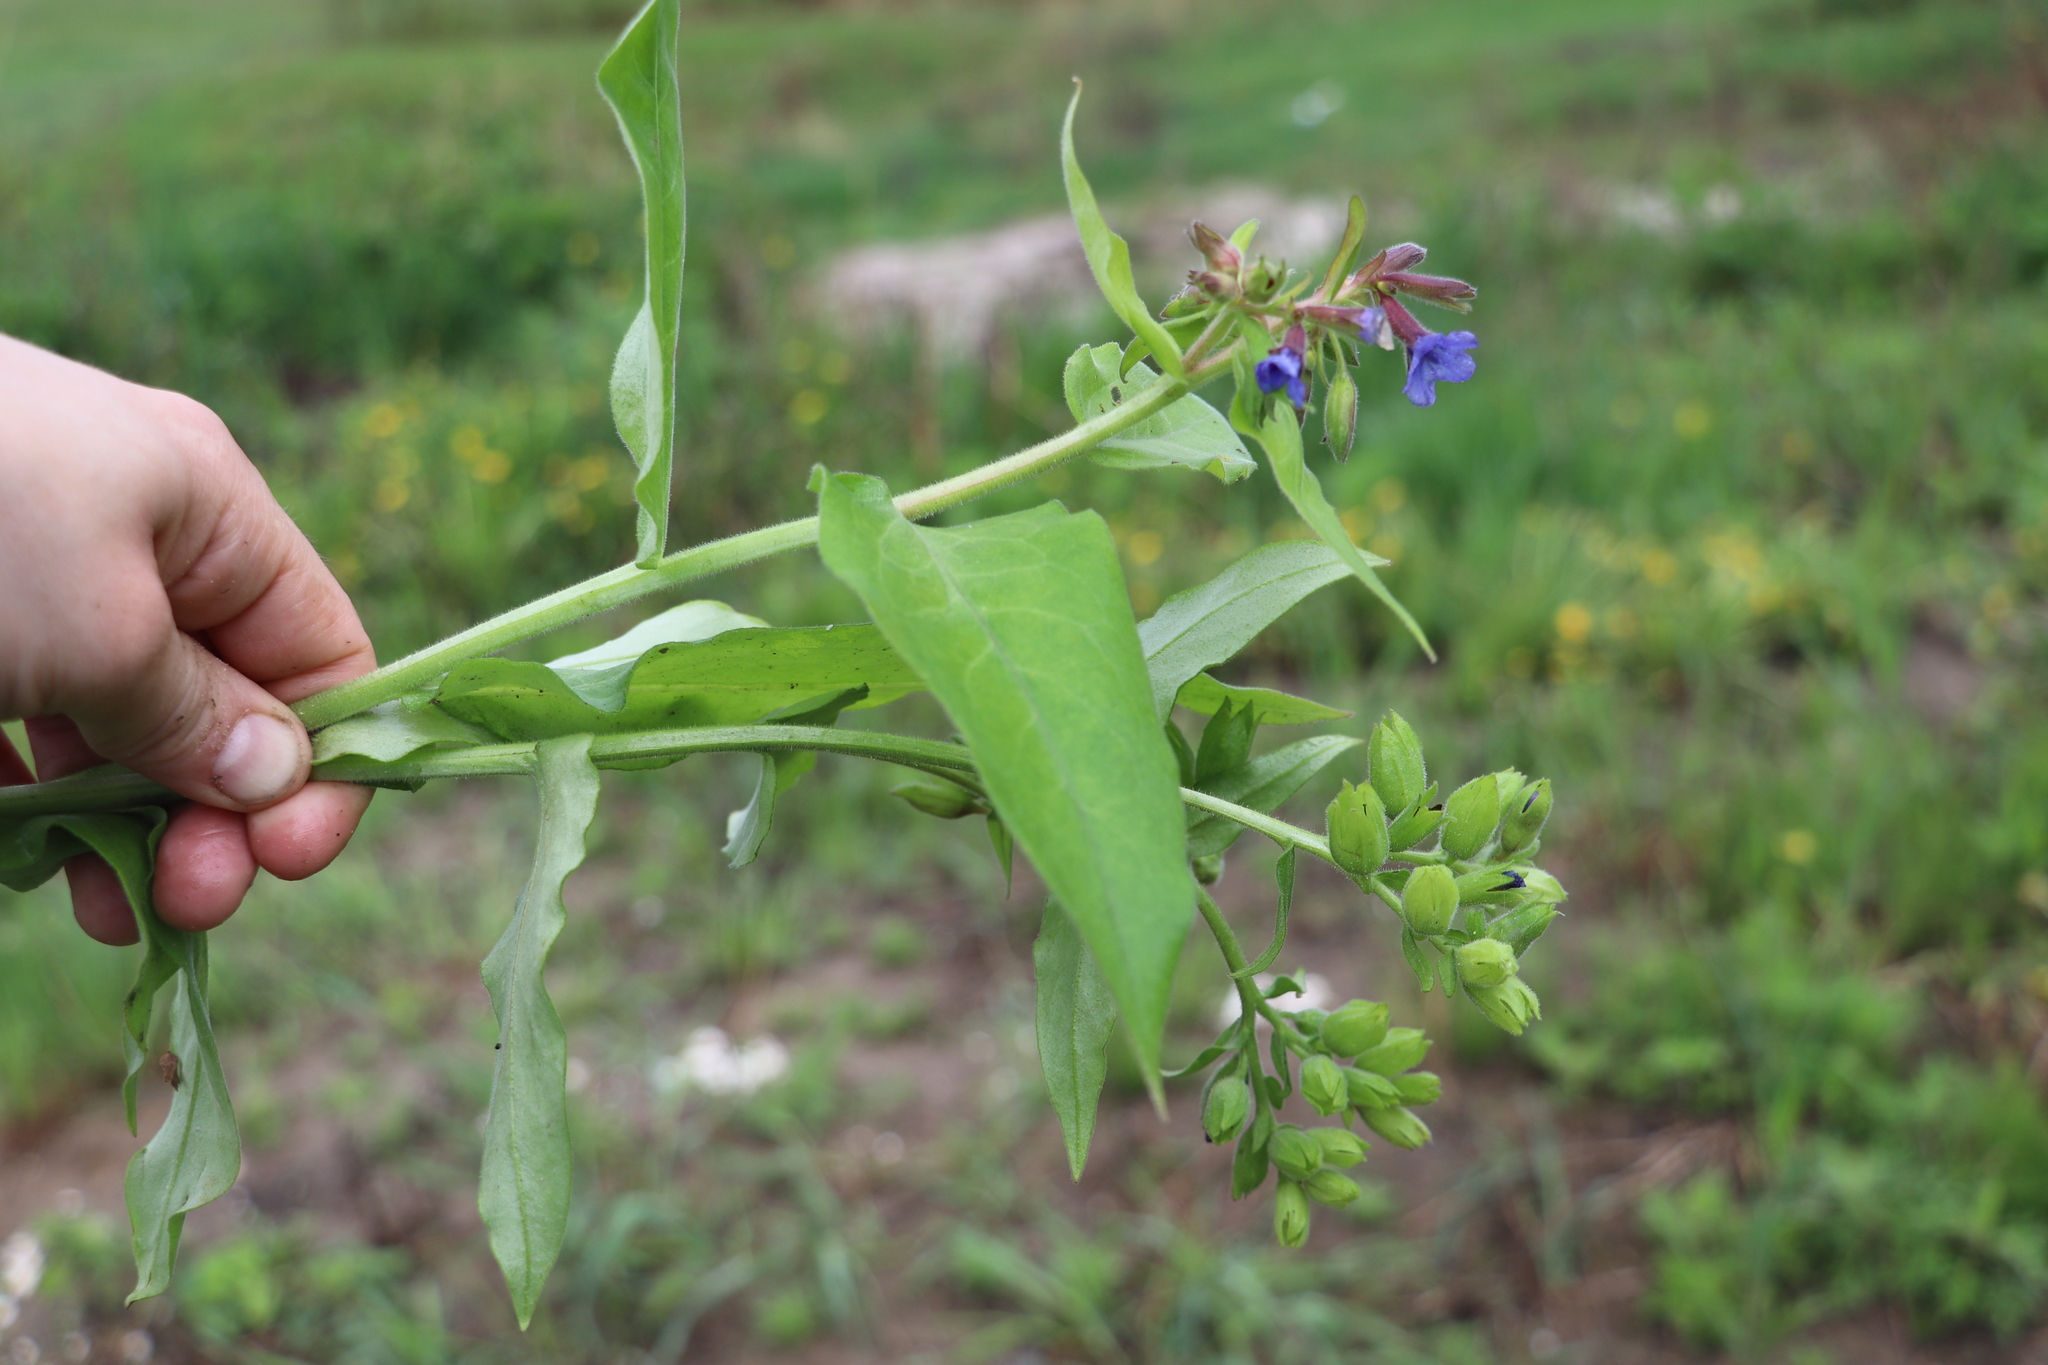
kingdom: Plantae
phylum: Tracheophyta
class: Magnoliopsida
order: Boraginales
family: Boraginaceae
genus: Pulmonaria
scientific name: Pulmonaria mollis
